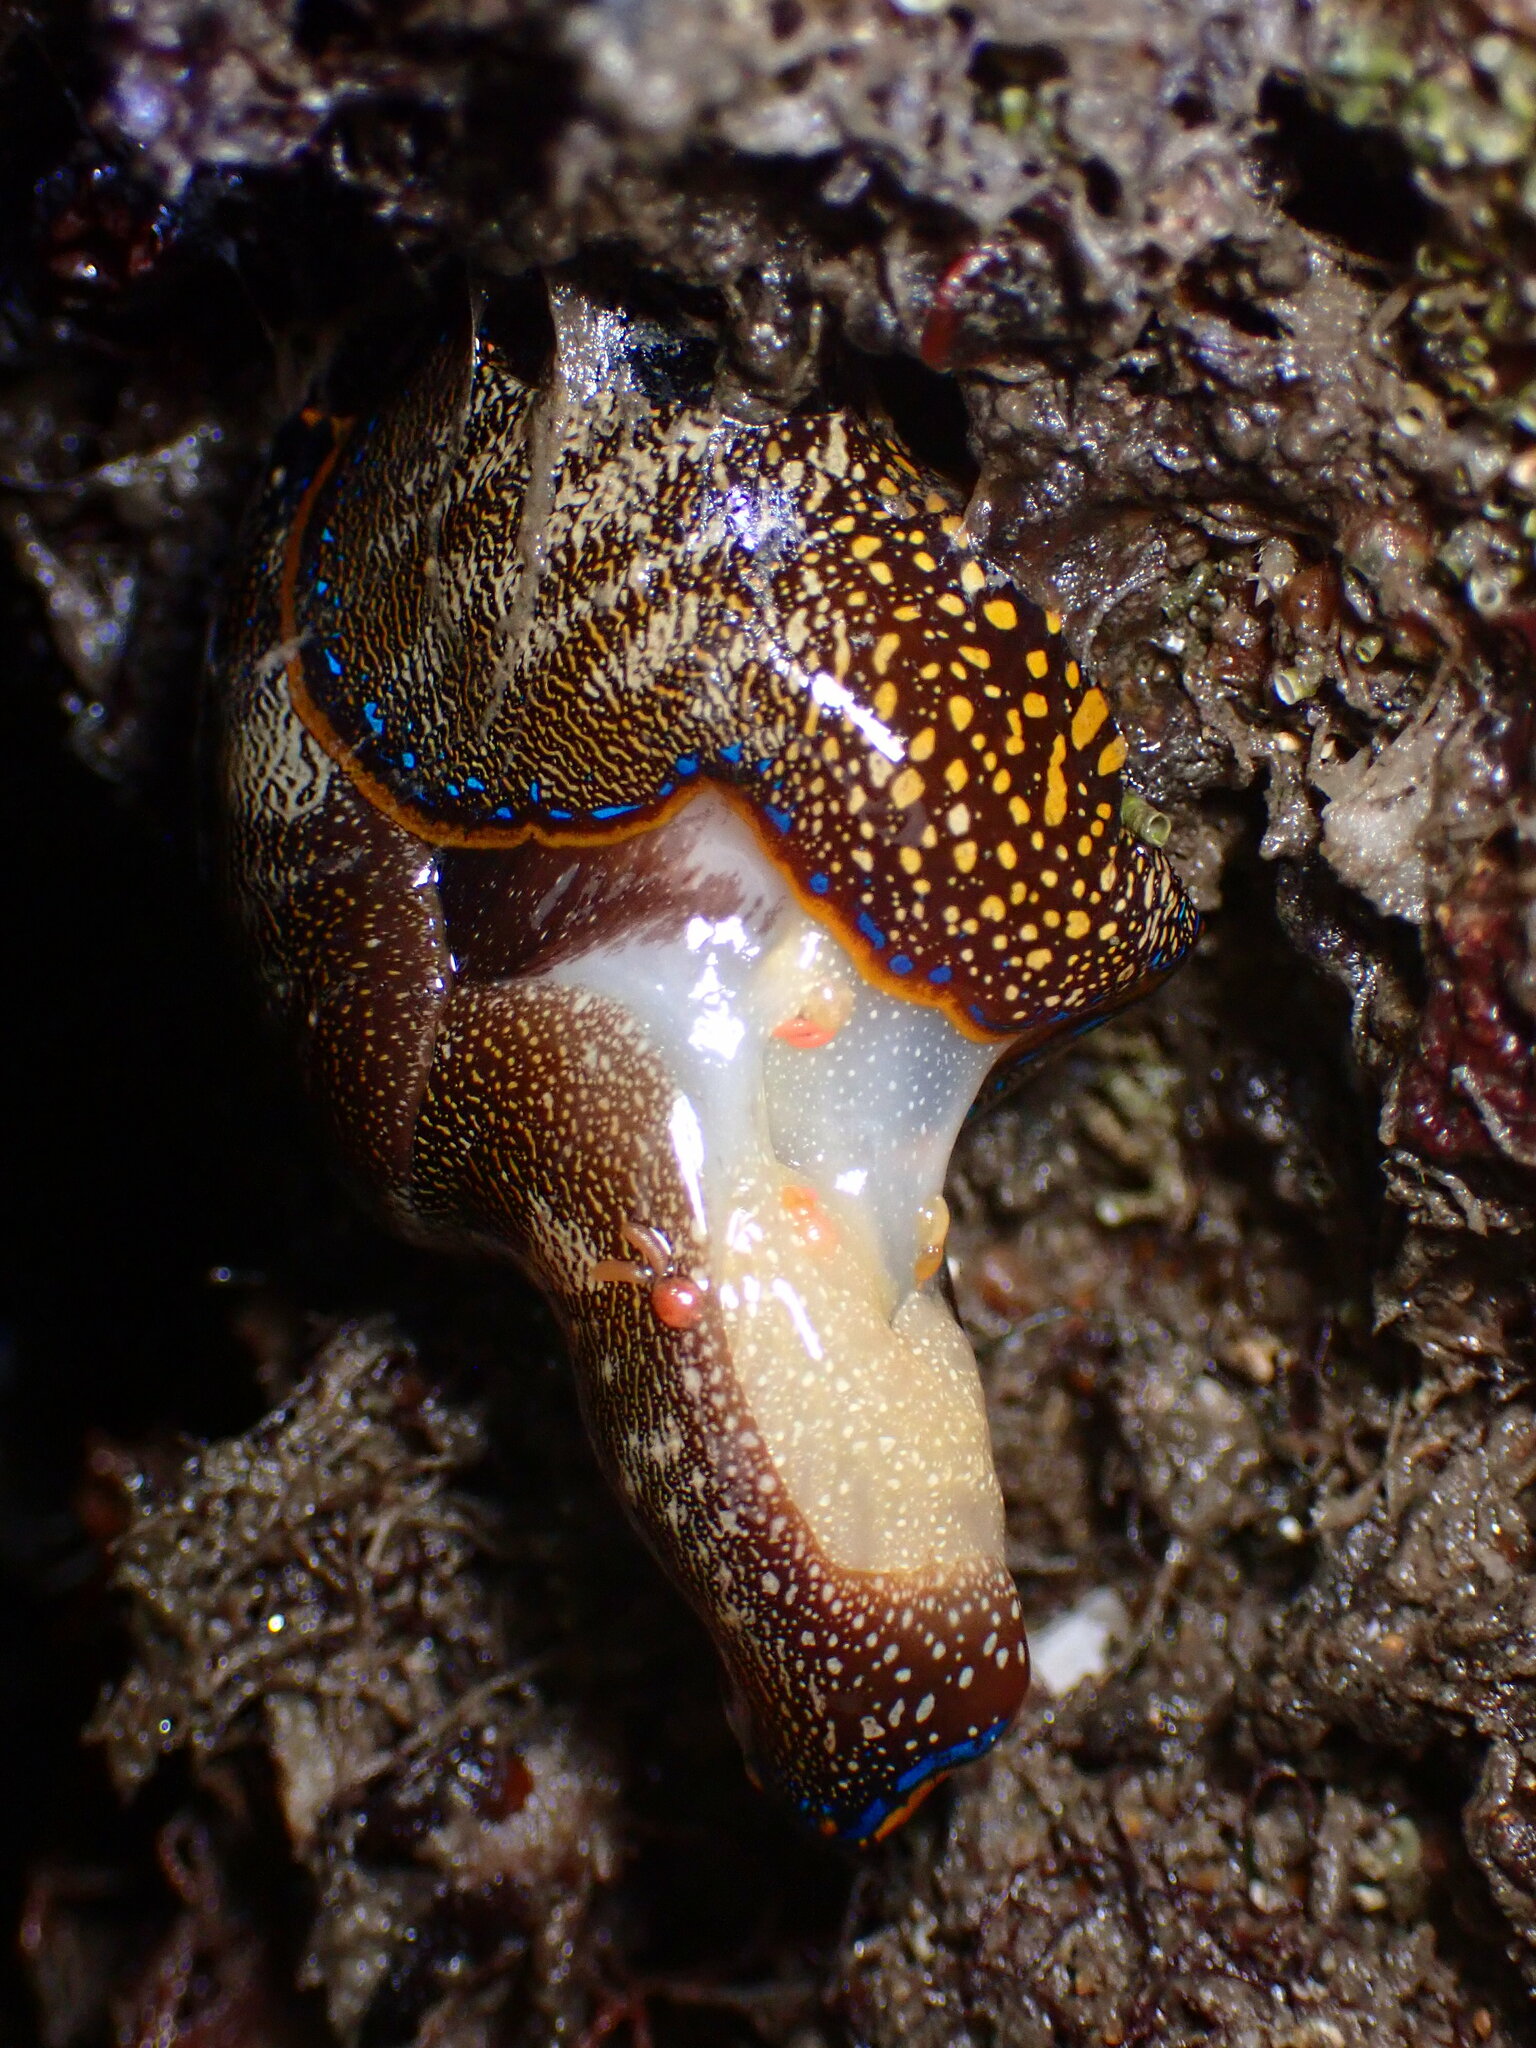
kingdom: Animalia
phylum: Mollusca
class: Gastropoda
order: Cephalaspidea
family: Aglajidae
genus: Navanax
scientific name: Navanax inermis
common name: California aglaja
